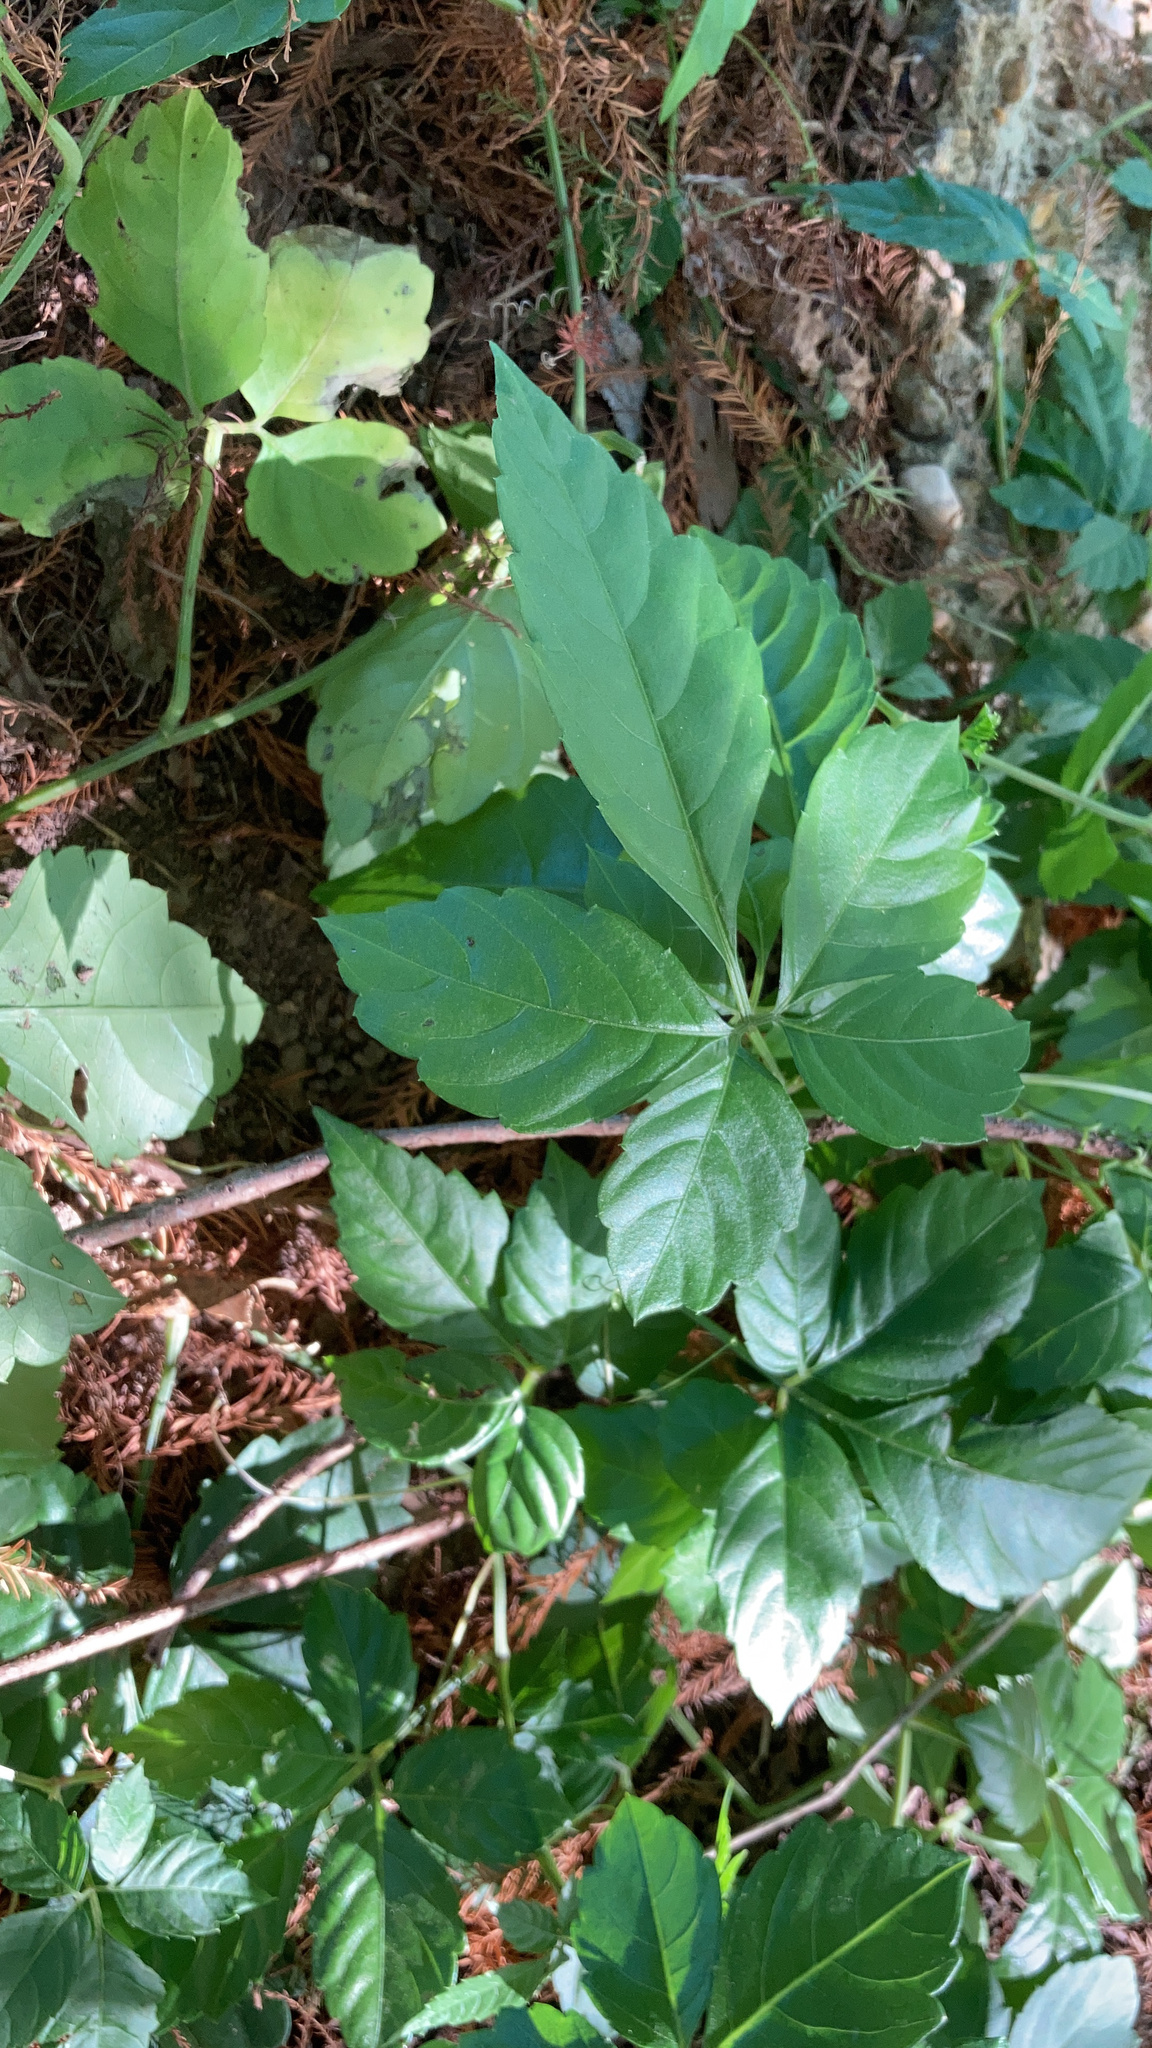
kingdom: Plantae
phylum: Tracheophyta
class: Magnoliopsida
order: Vitales
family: Vitaceae
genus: Causonis
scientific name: Causonis japonica
